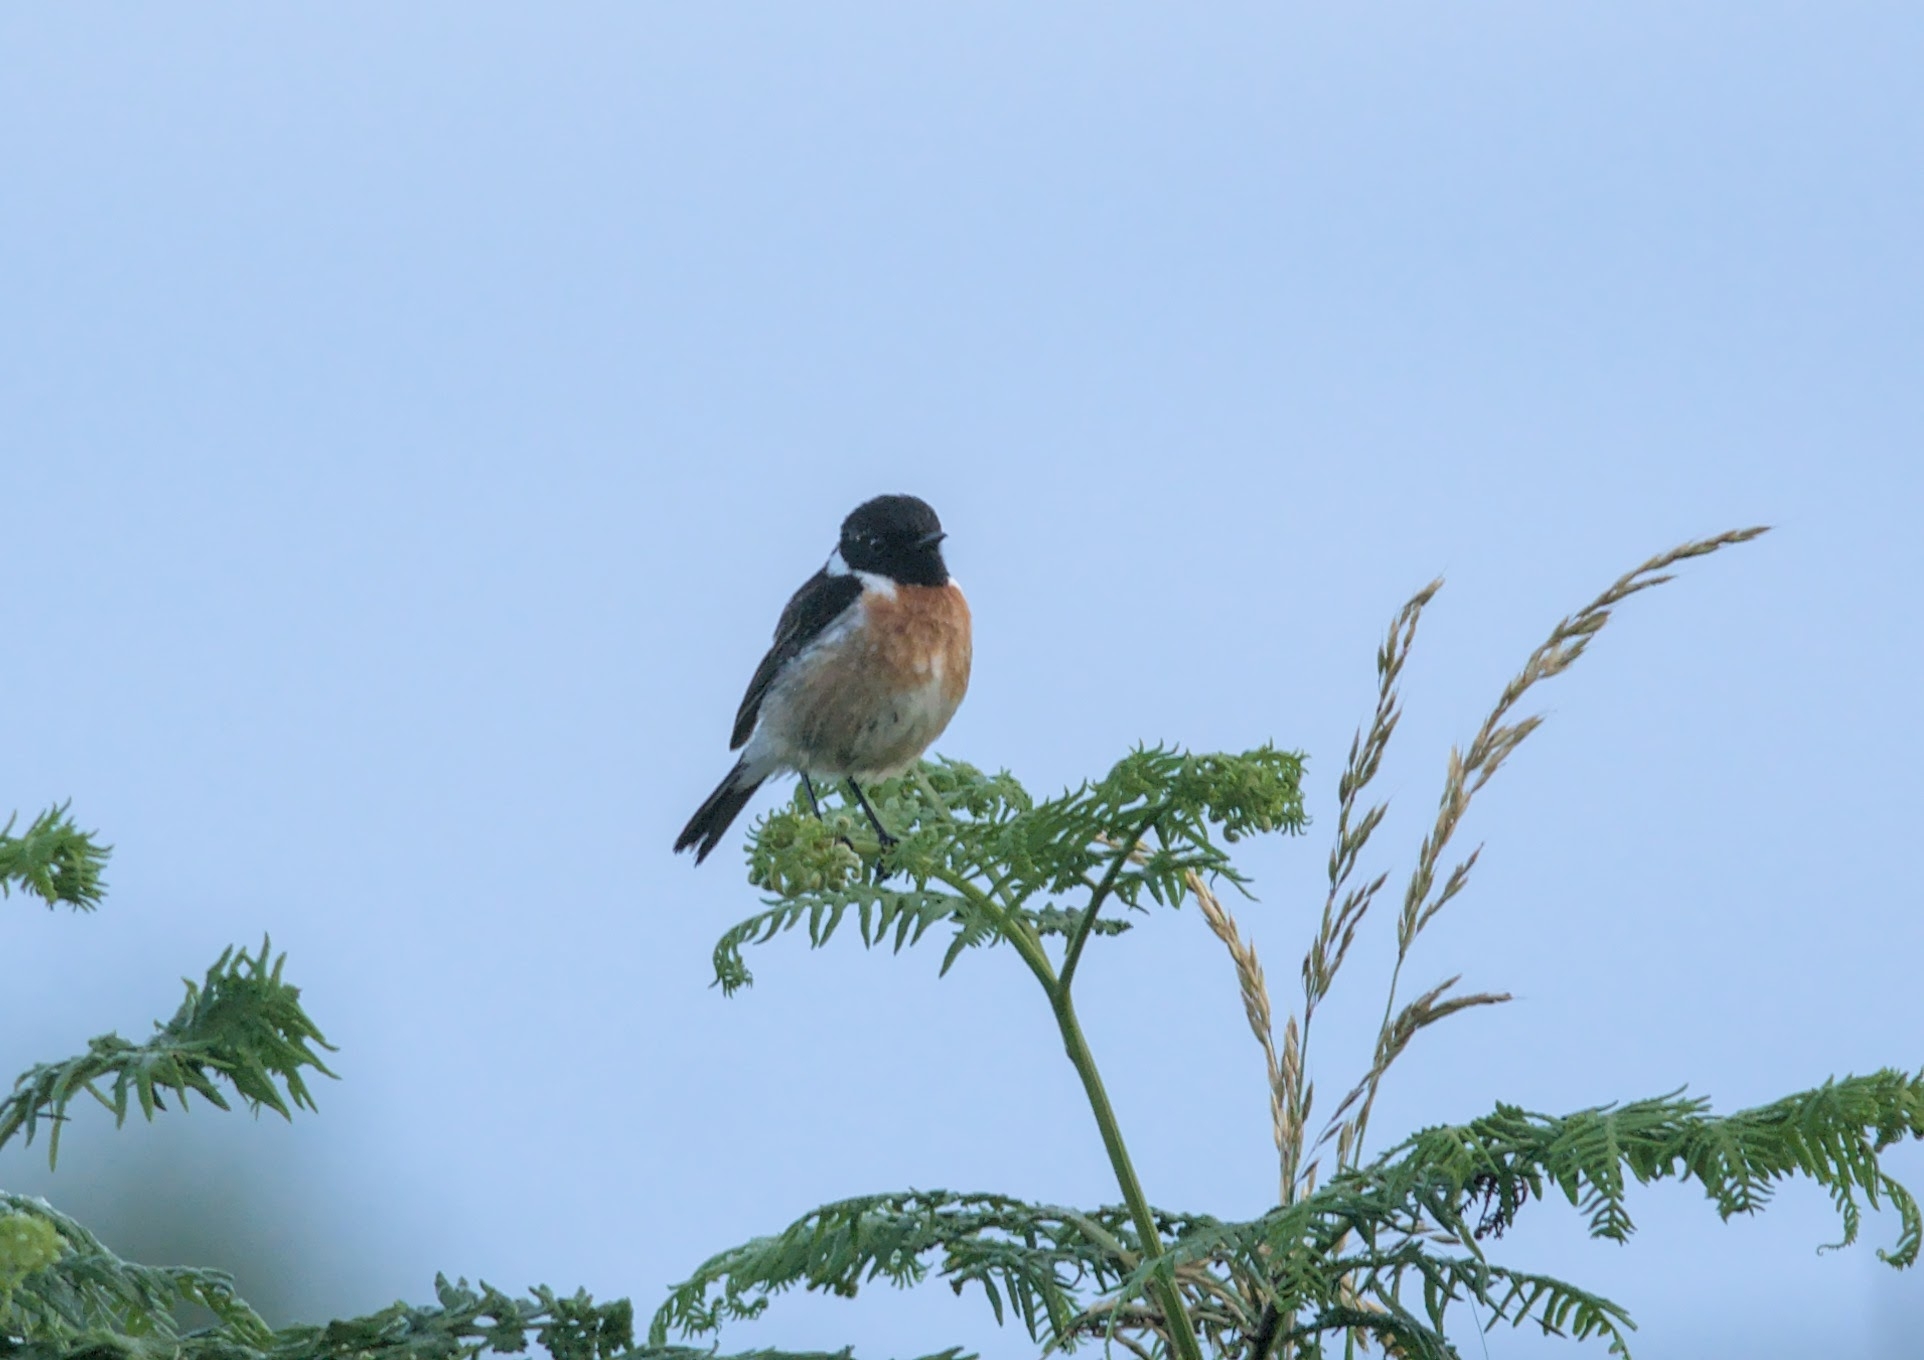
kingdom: Animalia
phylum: Chordata
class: Aves
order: Passeriformes
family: Muscicapidae
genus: Saxicola
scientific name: Saxicola rubicola
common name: European stonechat
